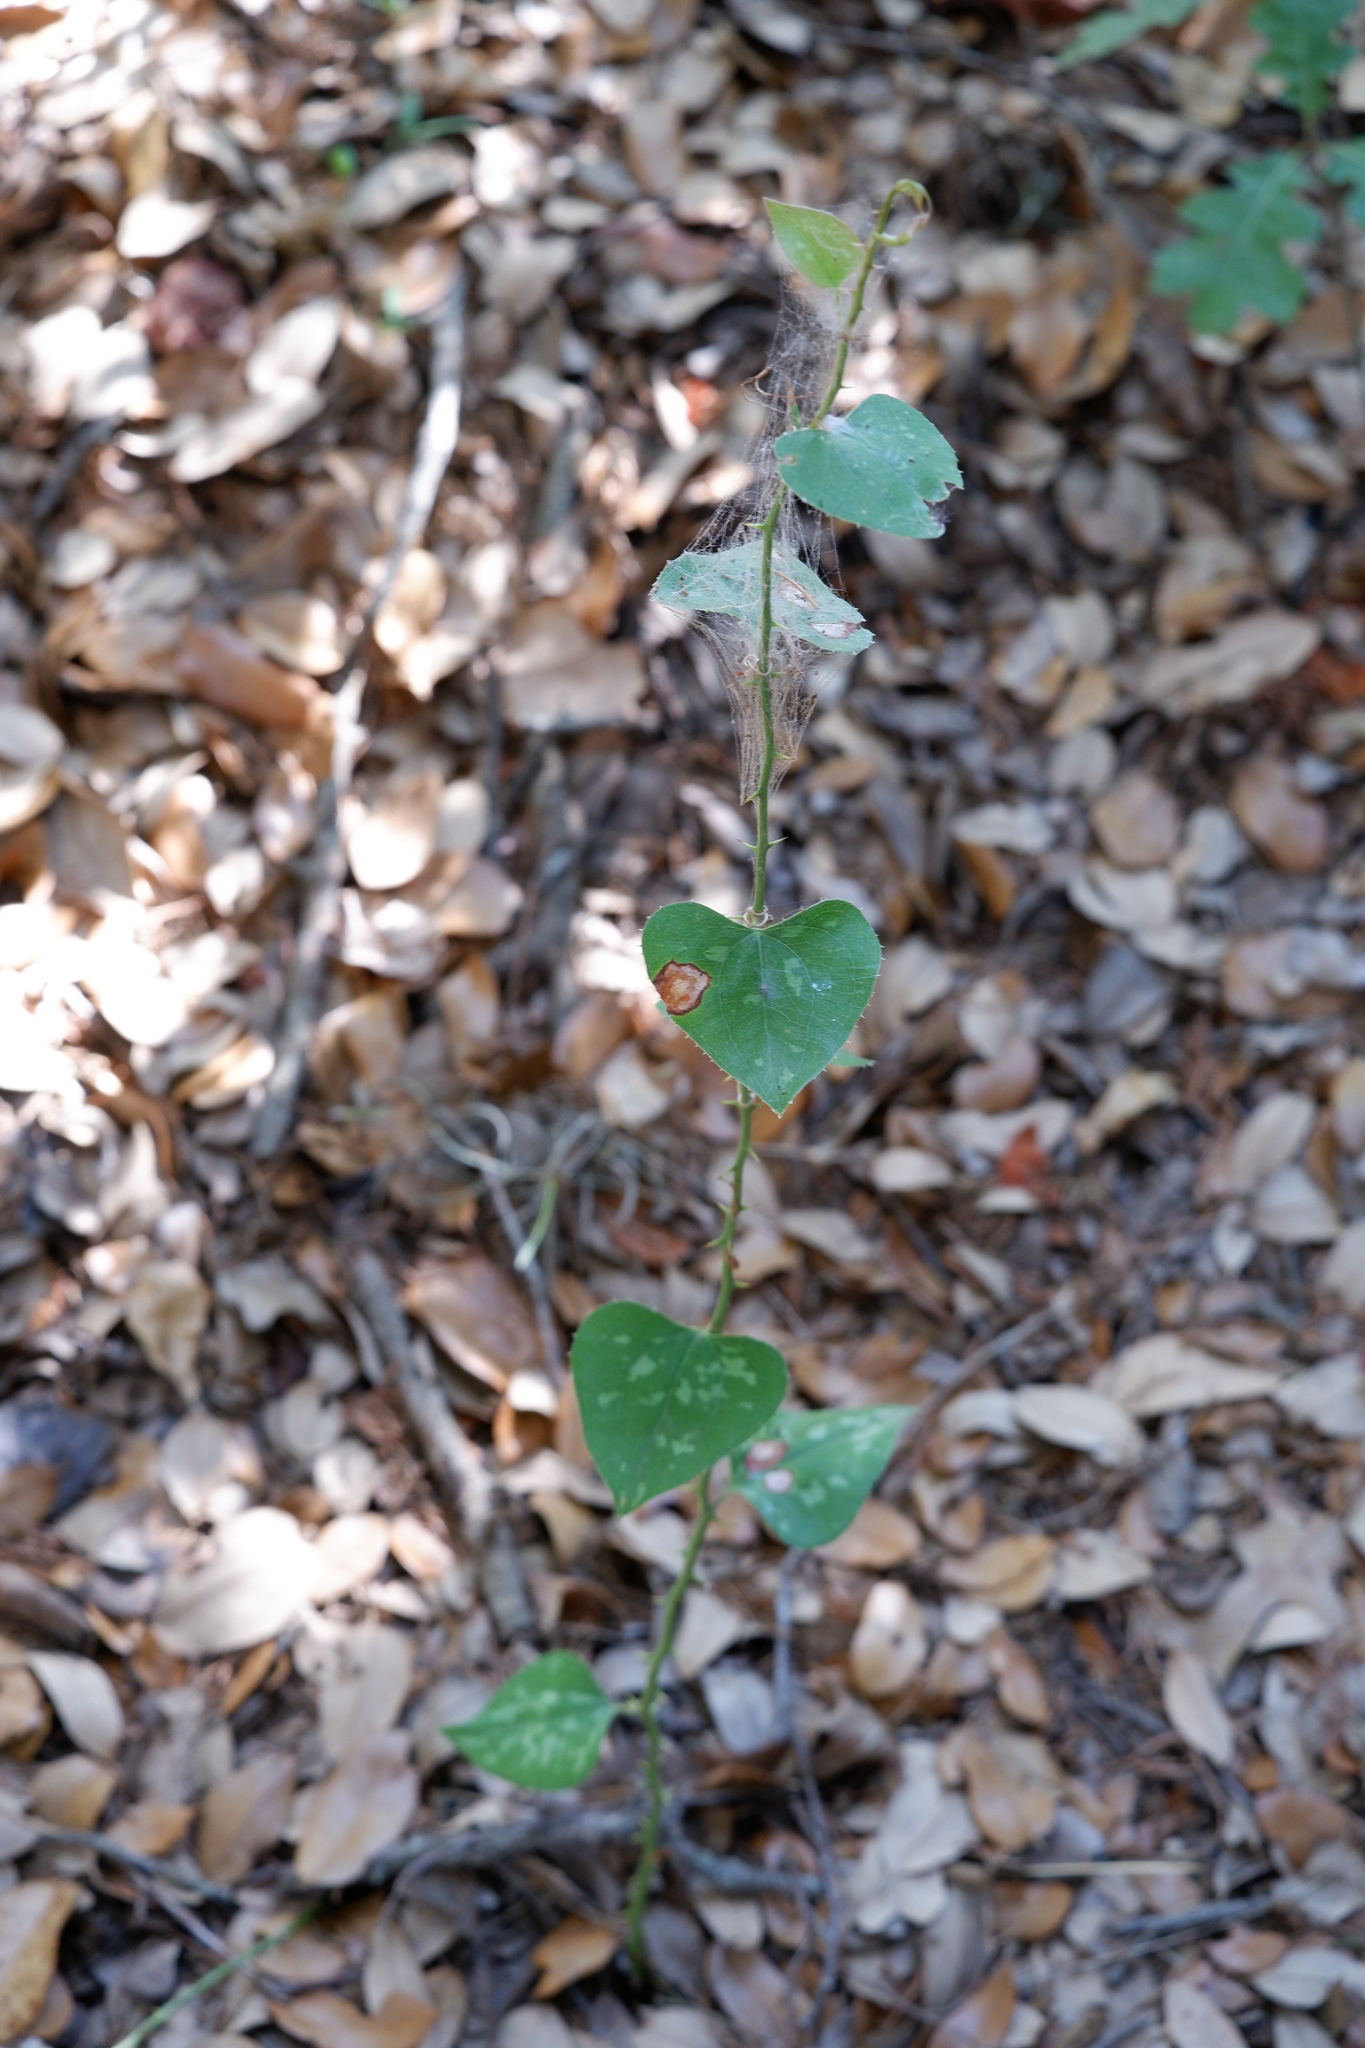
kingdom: Plantae
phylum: Tracheophyta
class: Liliopsida
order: Liliales
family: Smilacaceae
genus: Smilax
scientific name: Smilax bona-nox
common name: Catbrier
